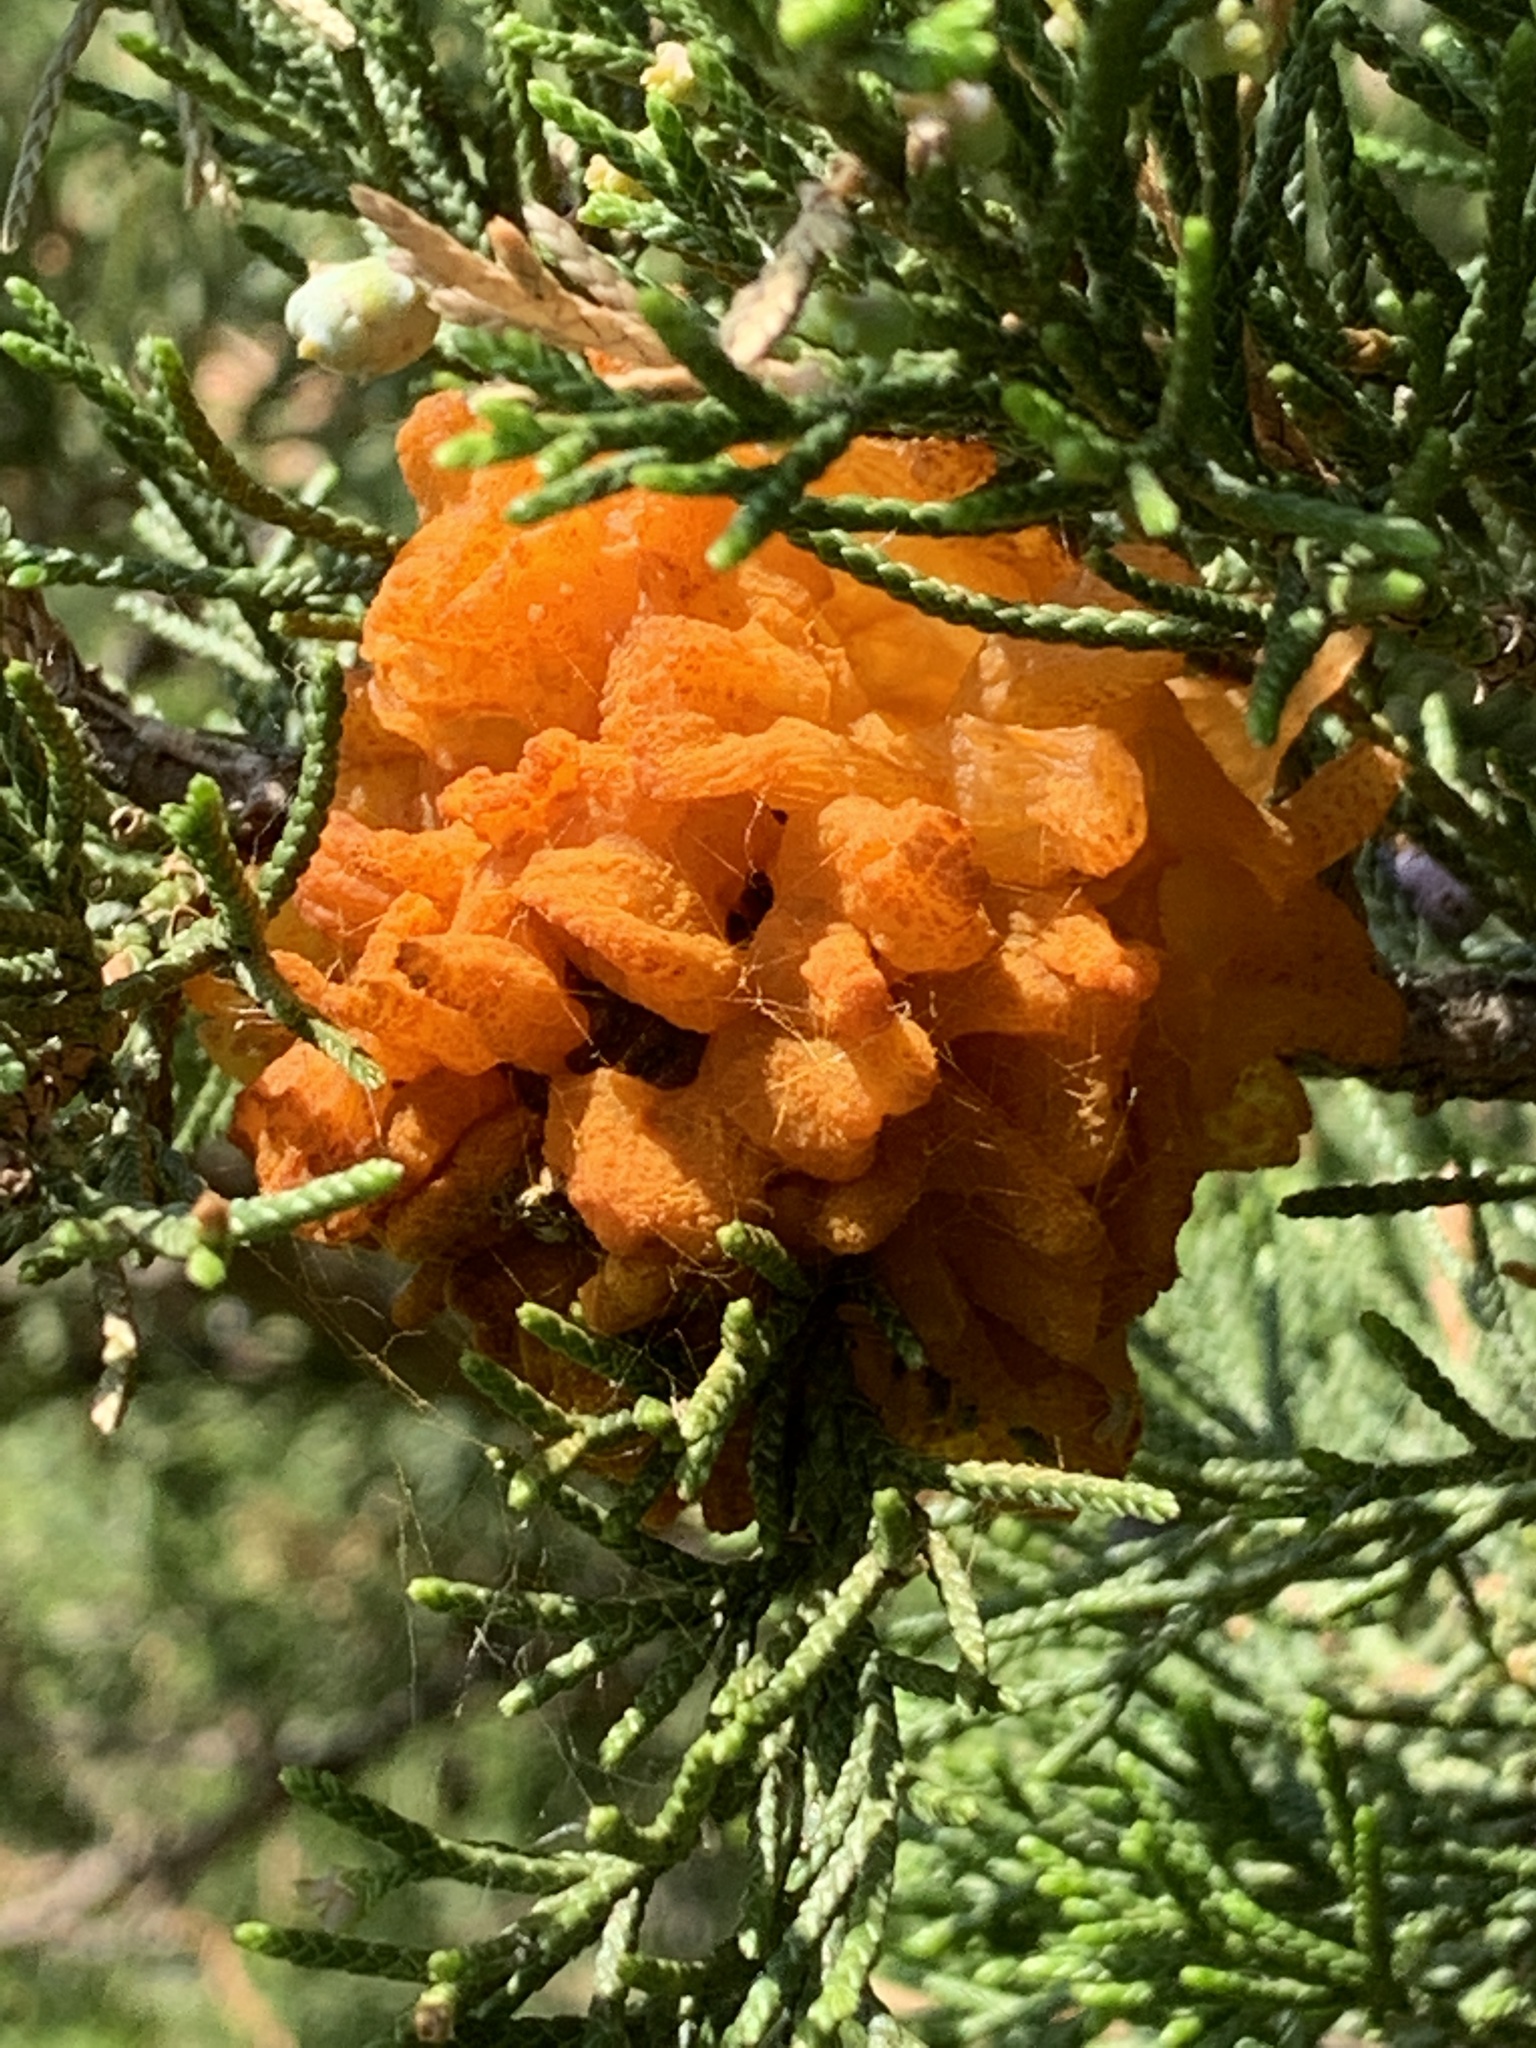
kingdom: Fungi
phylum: Basidiomycota
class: Pucciniomycetes
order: Pucciniales
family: Gymnosporangiaceae
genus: Gymnosporangium
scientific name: Gymnosporangium juniperi-virginianae
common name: Juniper-apple rust
